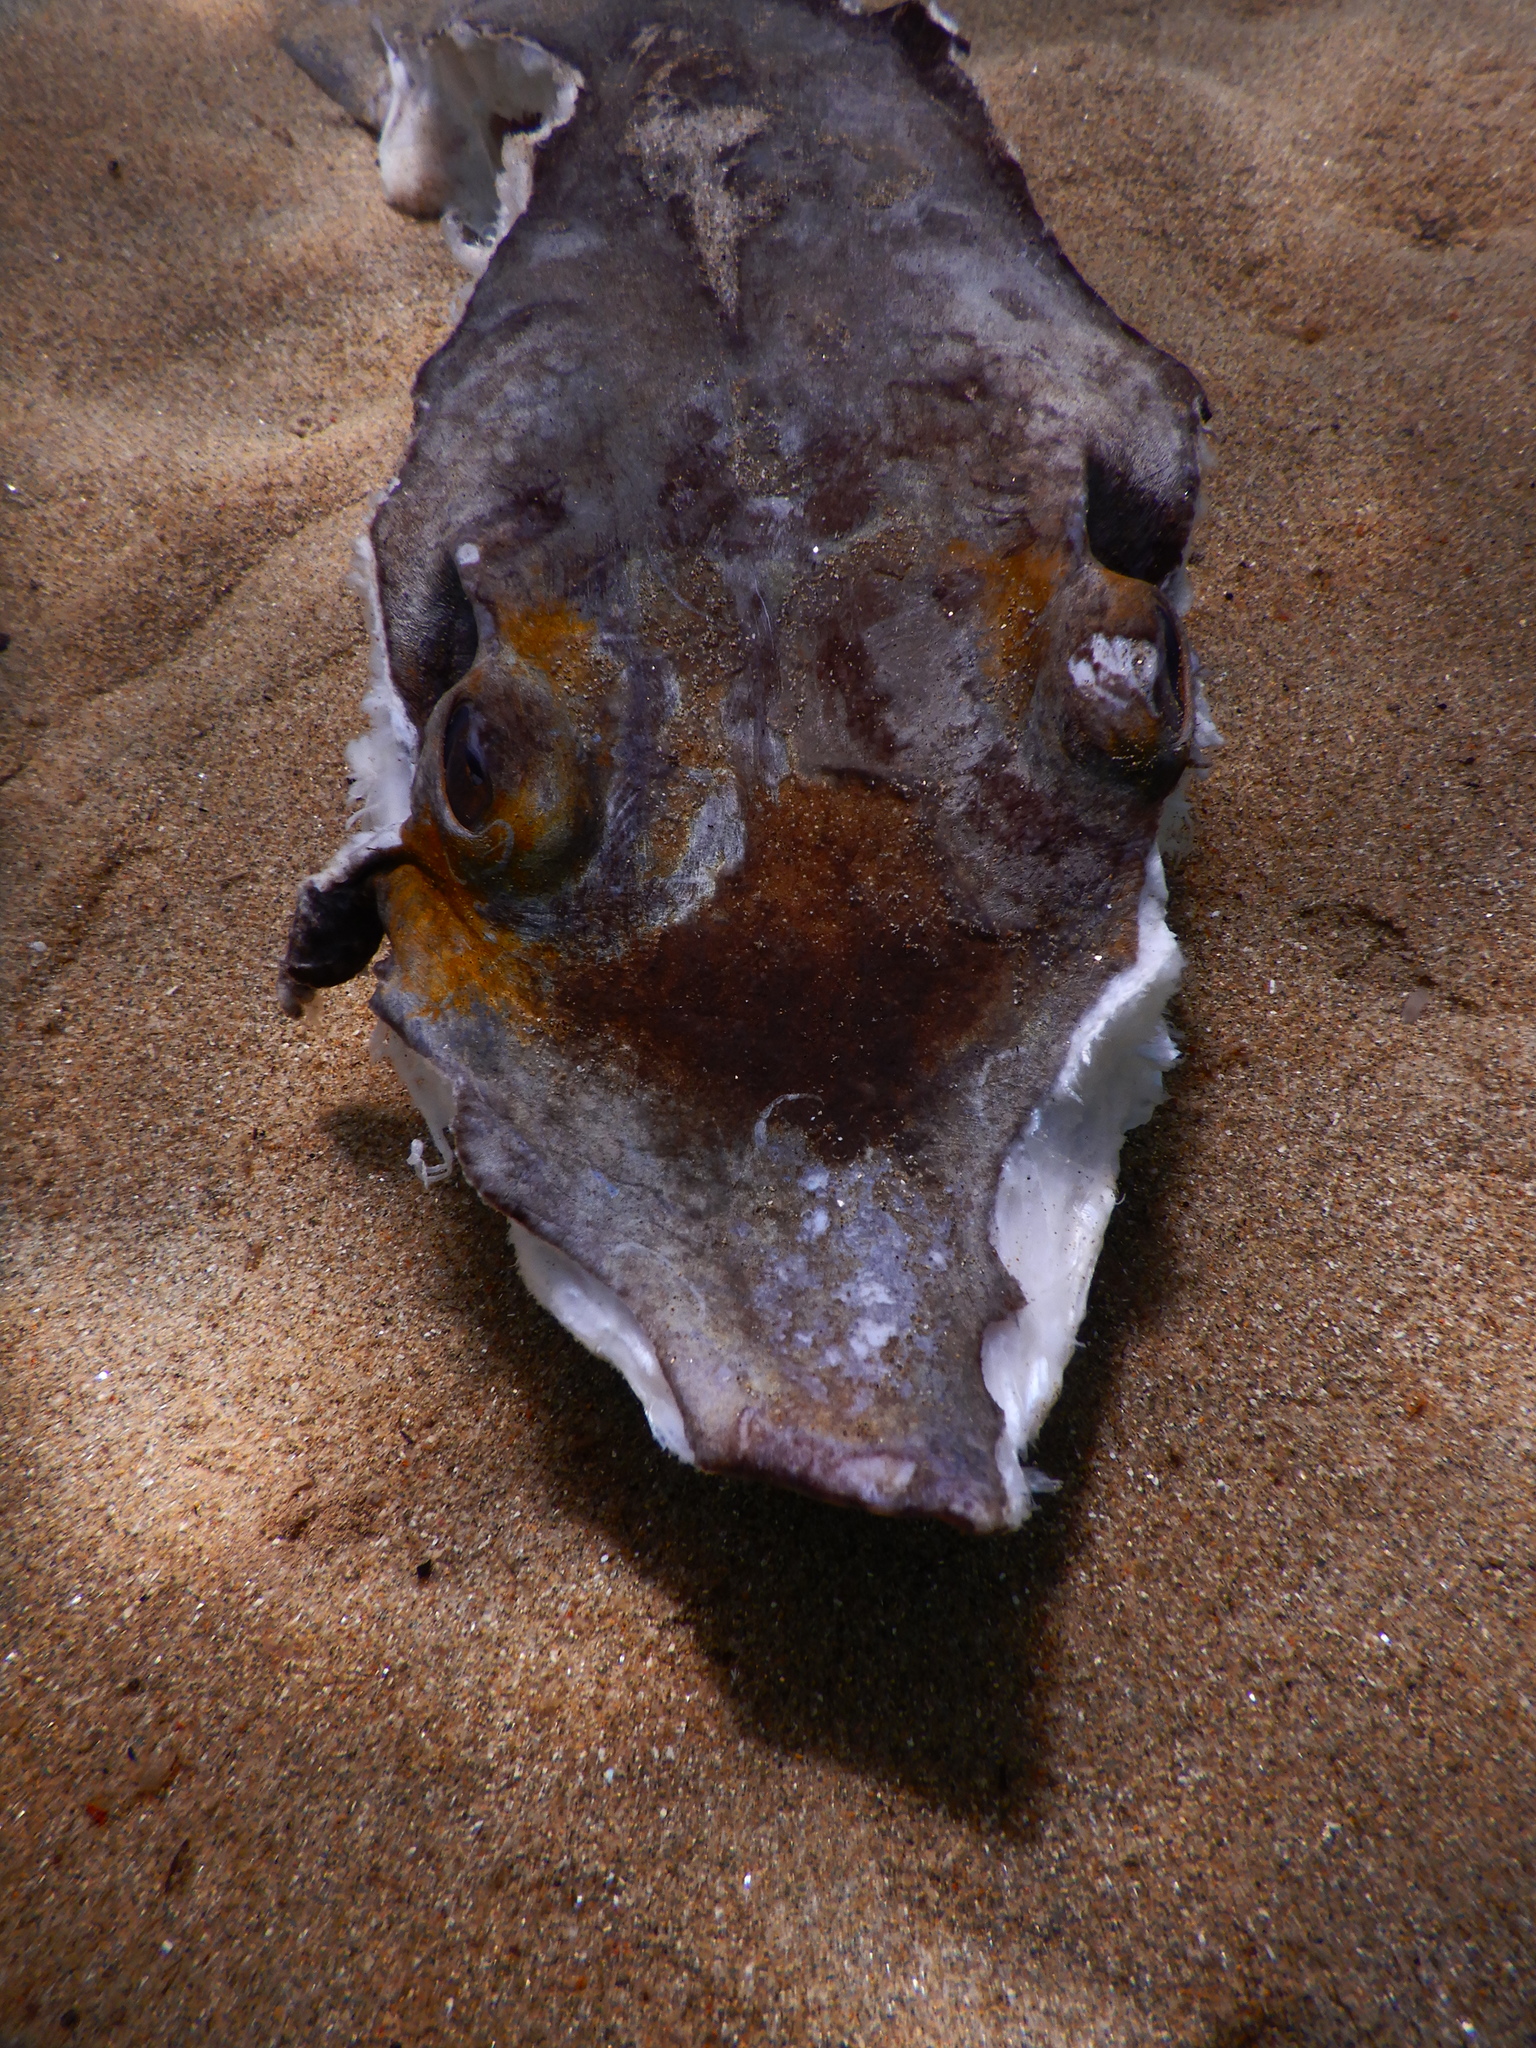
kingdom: Animalia
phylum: Chordata
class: Elasmobranchii
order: Myliobatiformes
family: Dasyatidae
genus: Dasyatis
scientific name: Dasyatis
